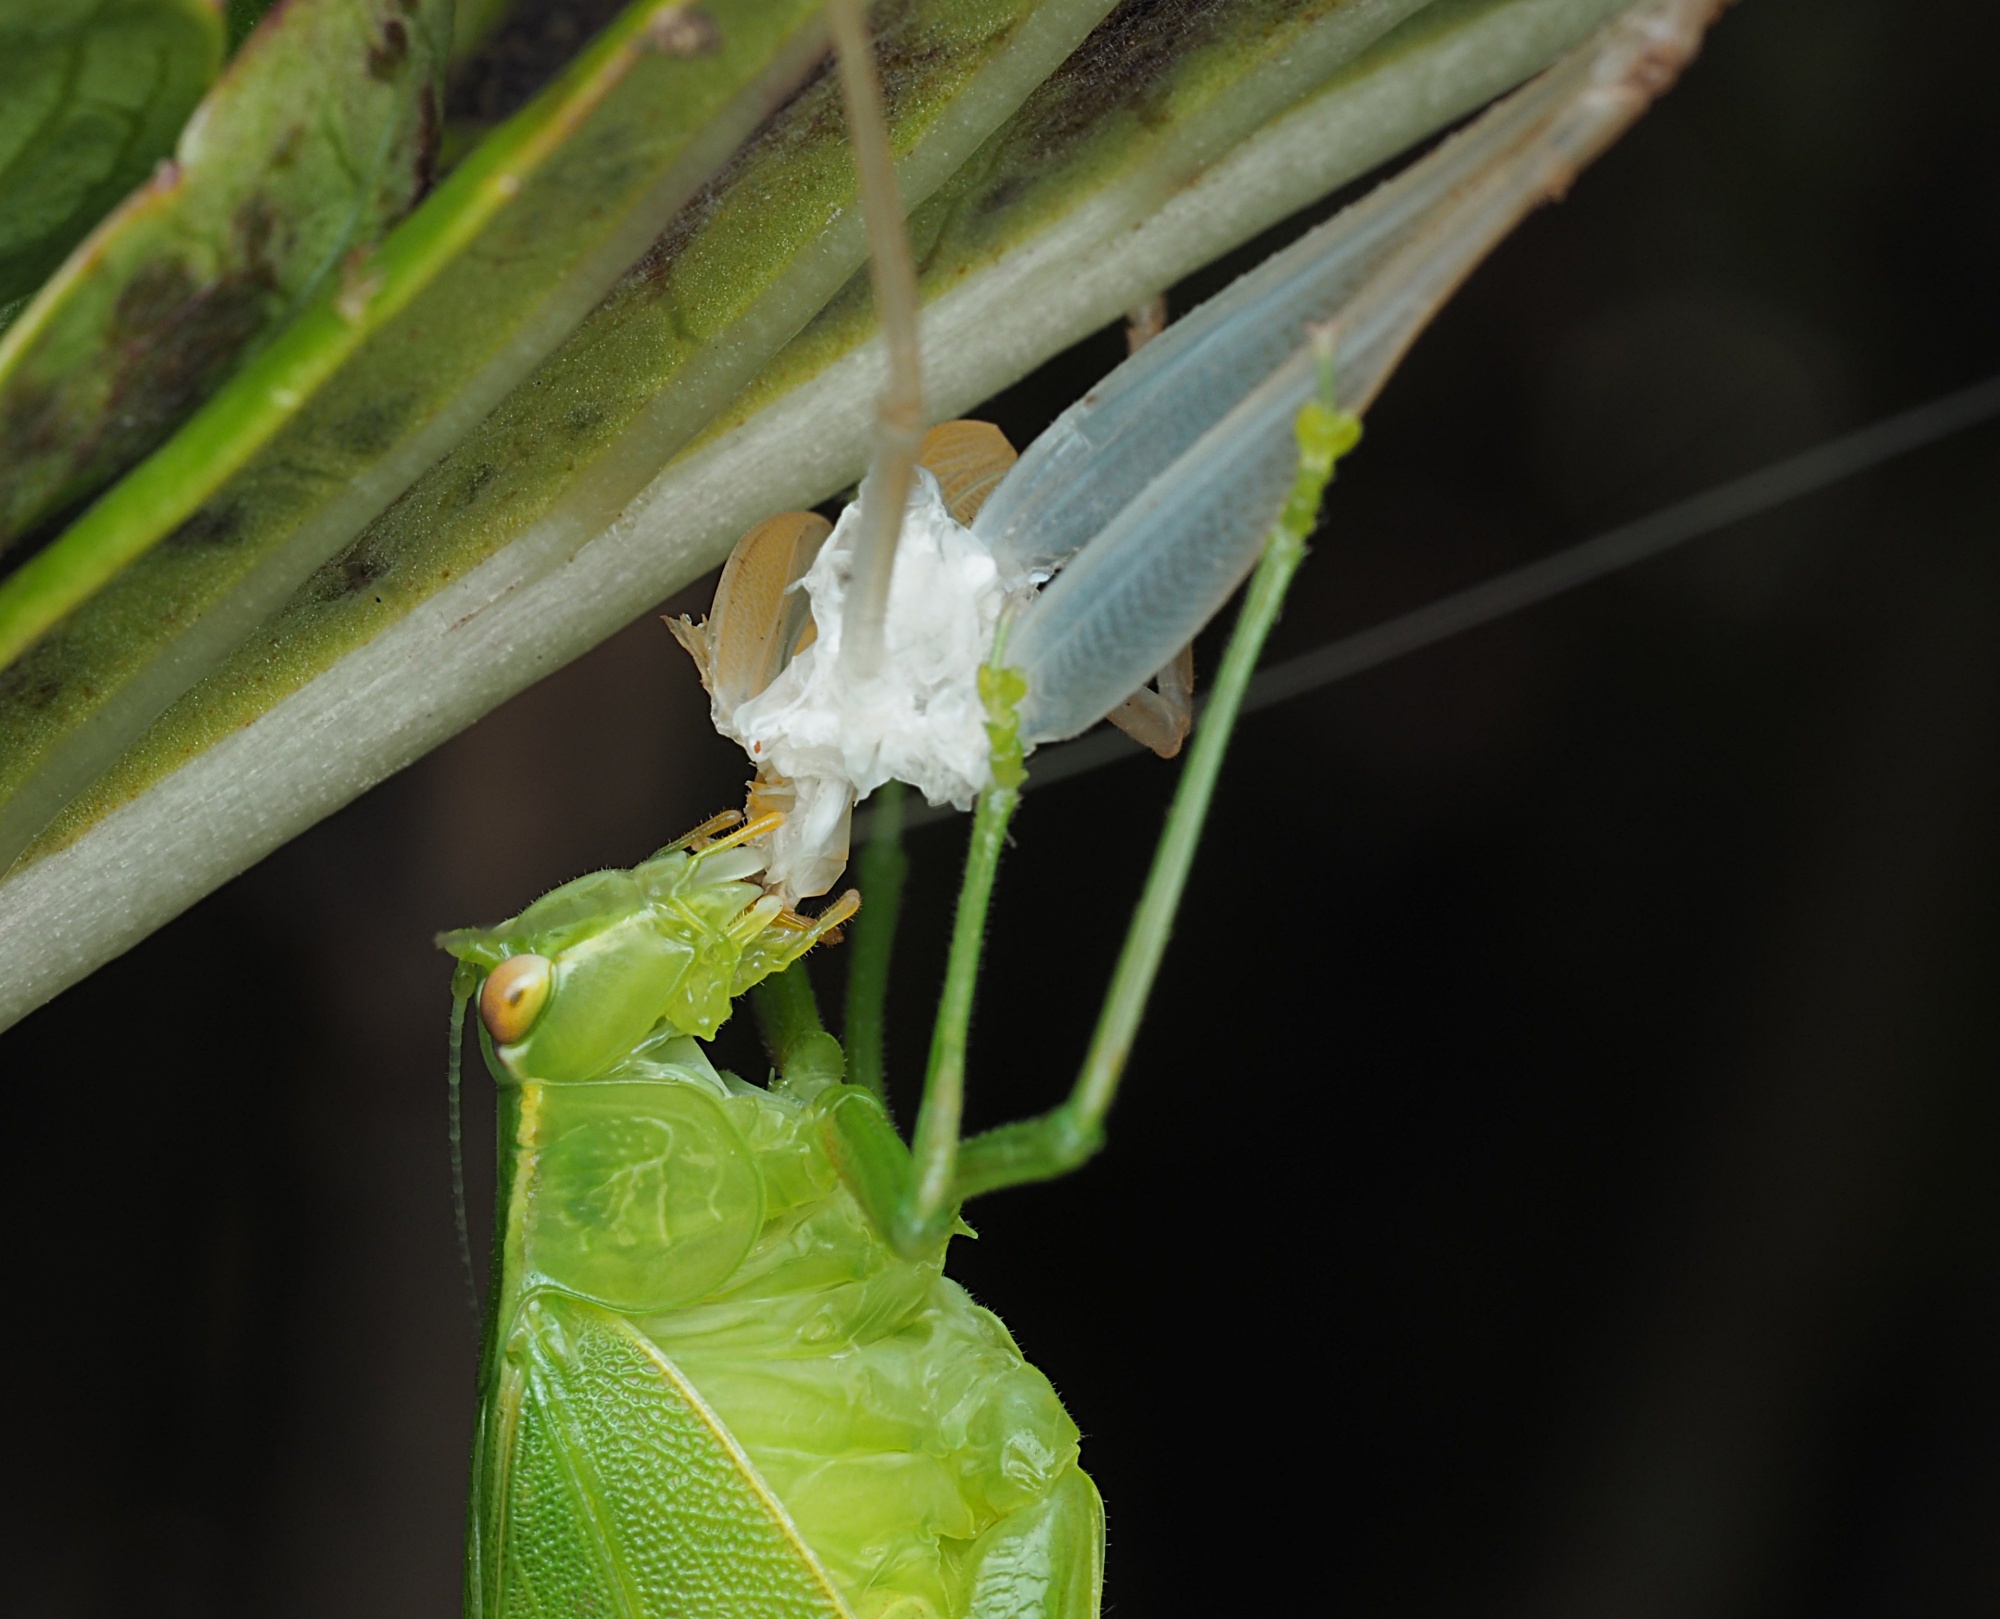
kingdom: Animalia
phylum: Arthropoda
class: Insecta
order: Orthoptera
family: Tettigoniidae
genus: Caedicia
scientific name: Caedicia simplex
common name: Common garden katydid
